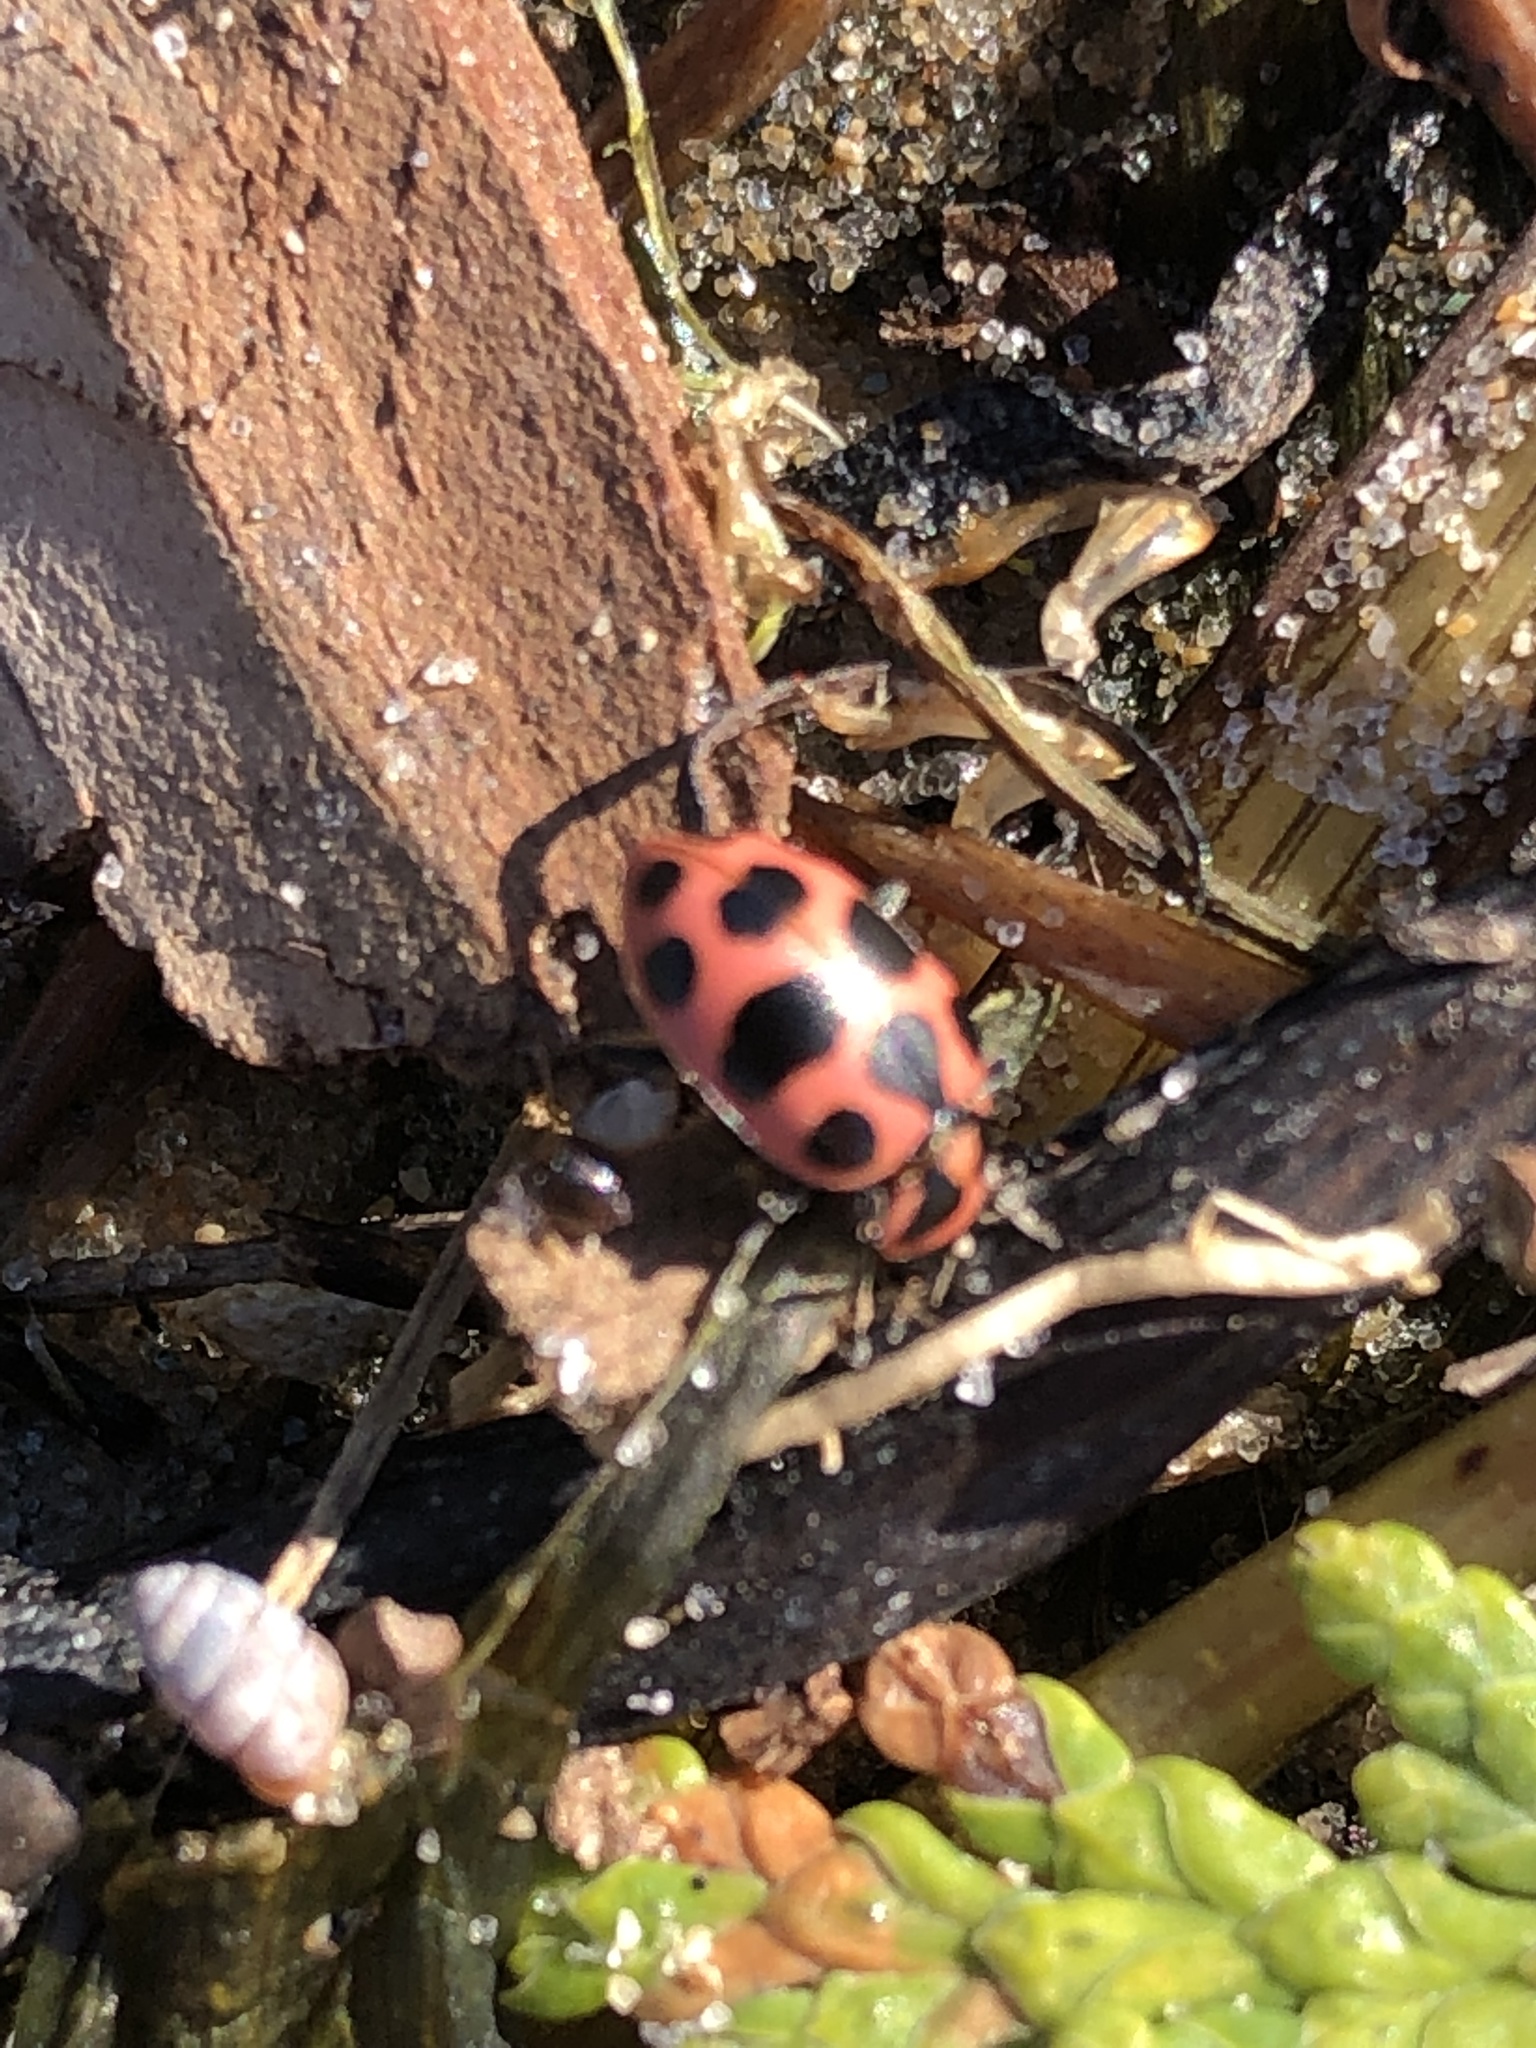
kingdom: Animalia
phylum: Arthropoda
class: Insecta
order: Coleoptera
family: Coccinellidae
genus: Coleomegilla
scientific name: Coleomegilla maculata
